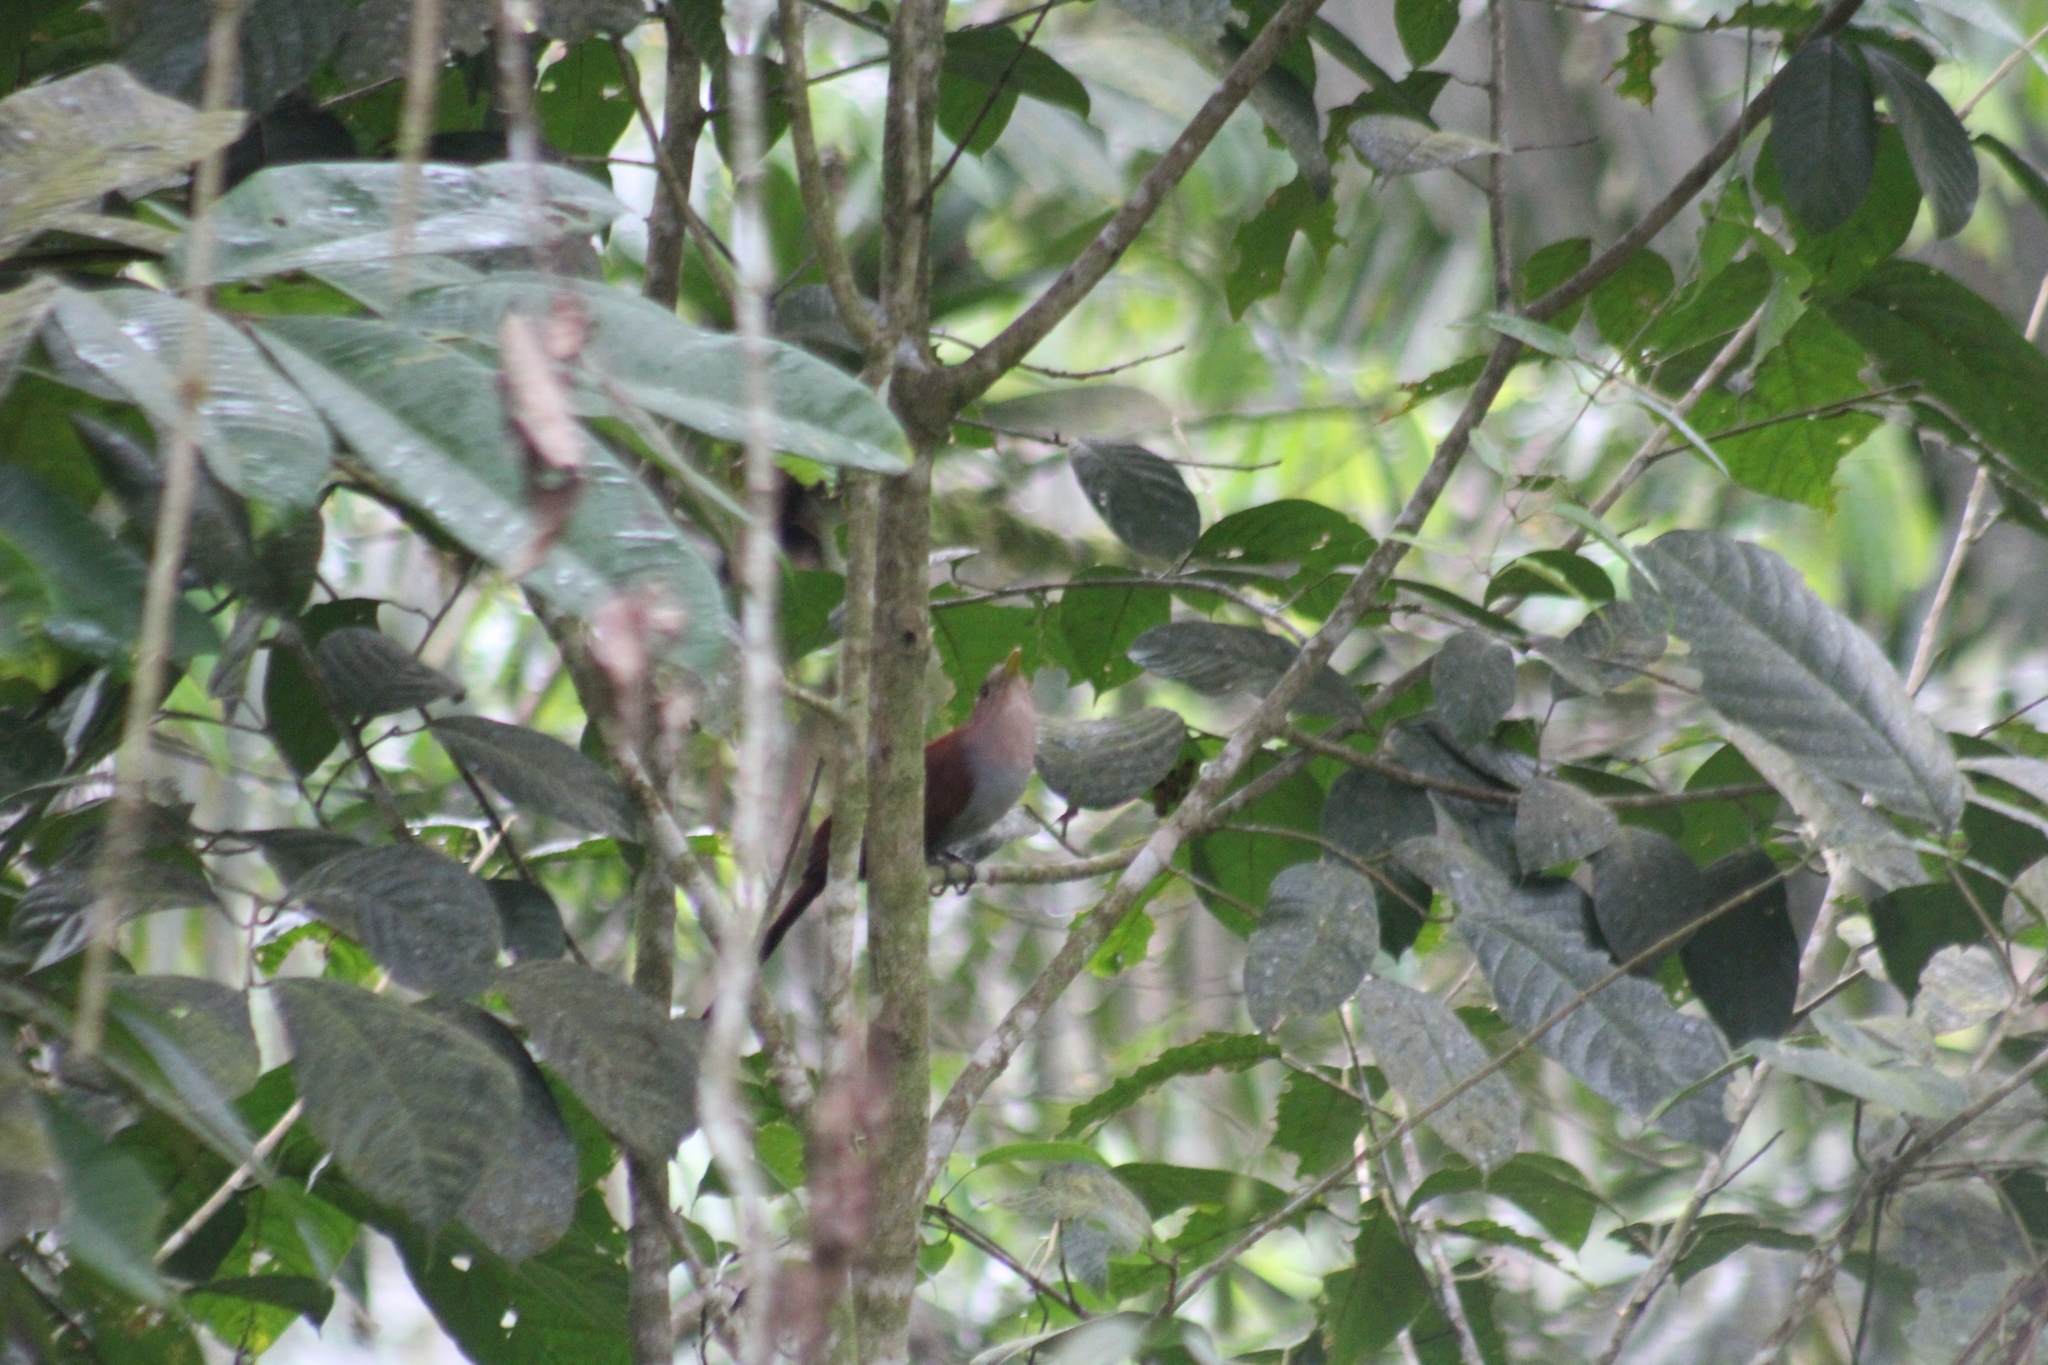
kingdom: Animalia
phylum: Chordata
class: Aves
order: Cuculiformes
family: Cuculidae
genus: Piaya
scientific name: Piaya cayana
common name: Squirrel cuckoo
